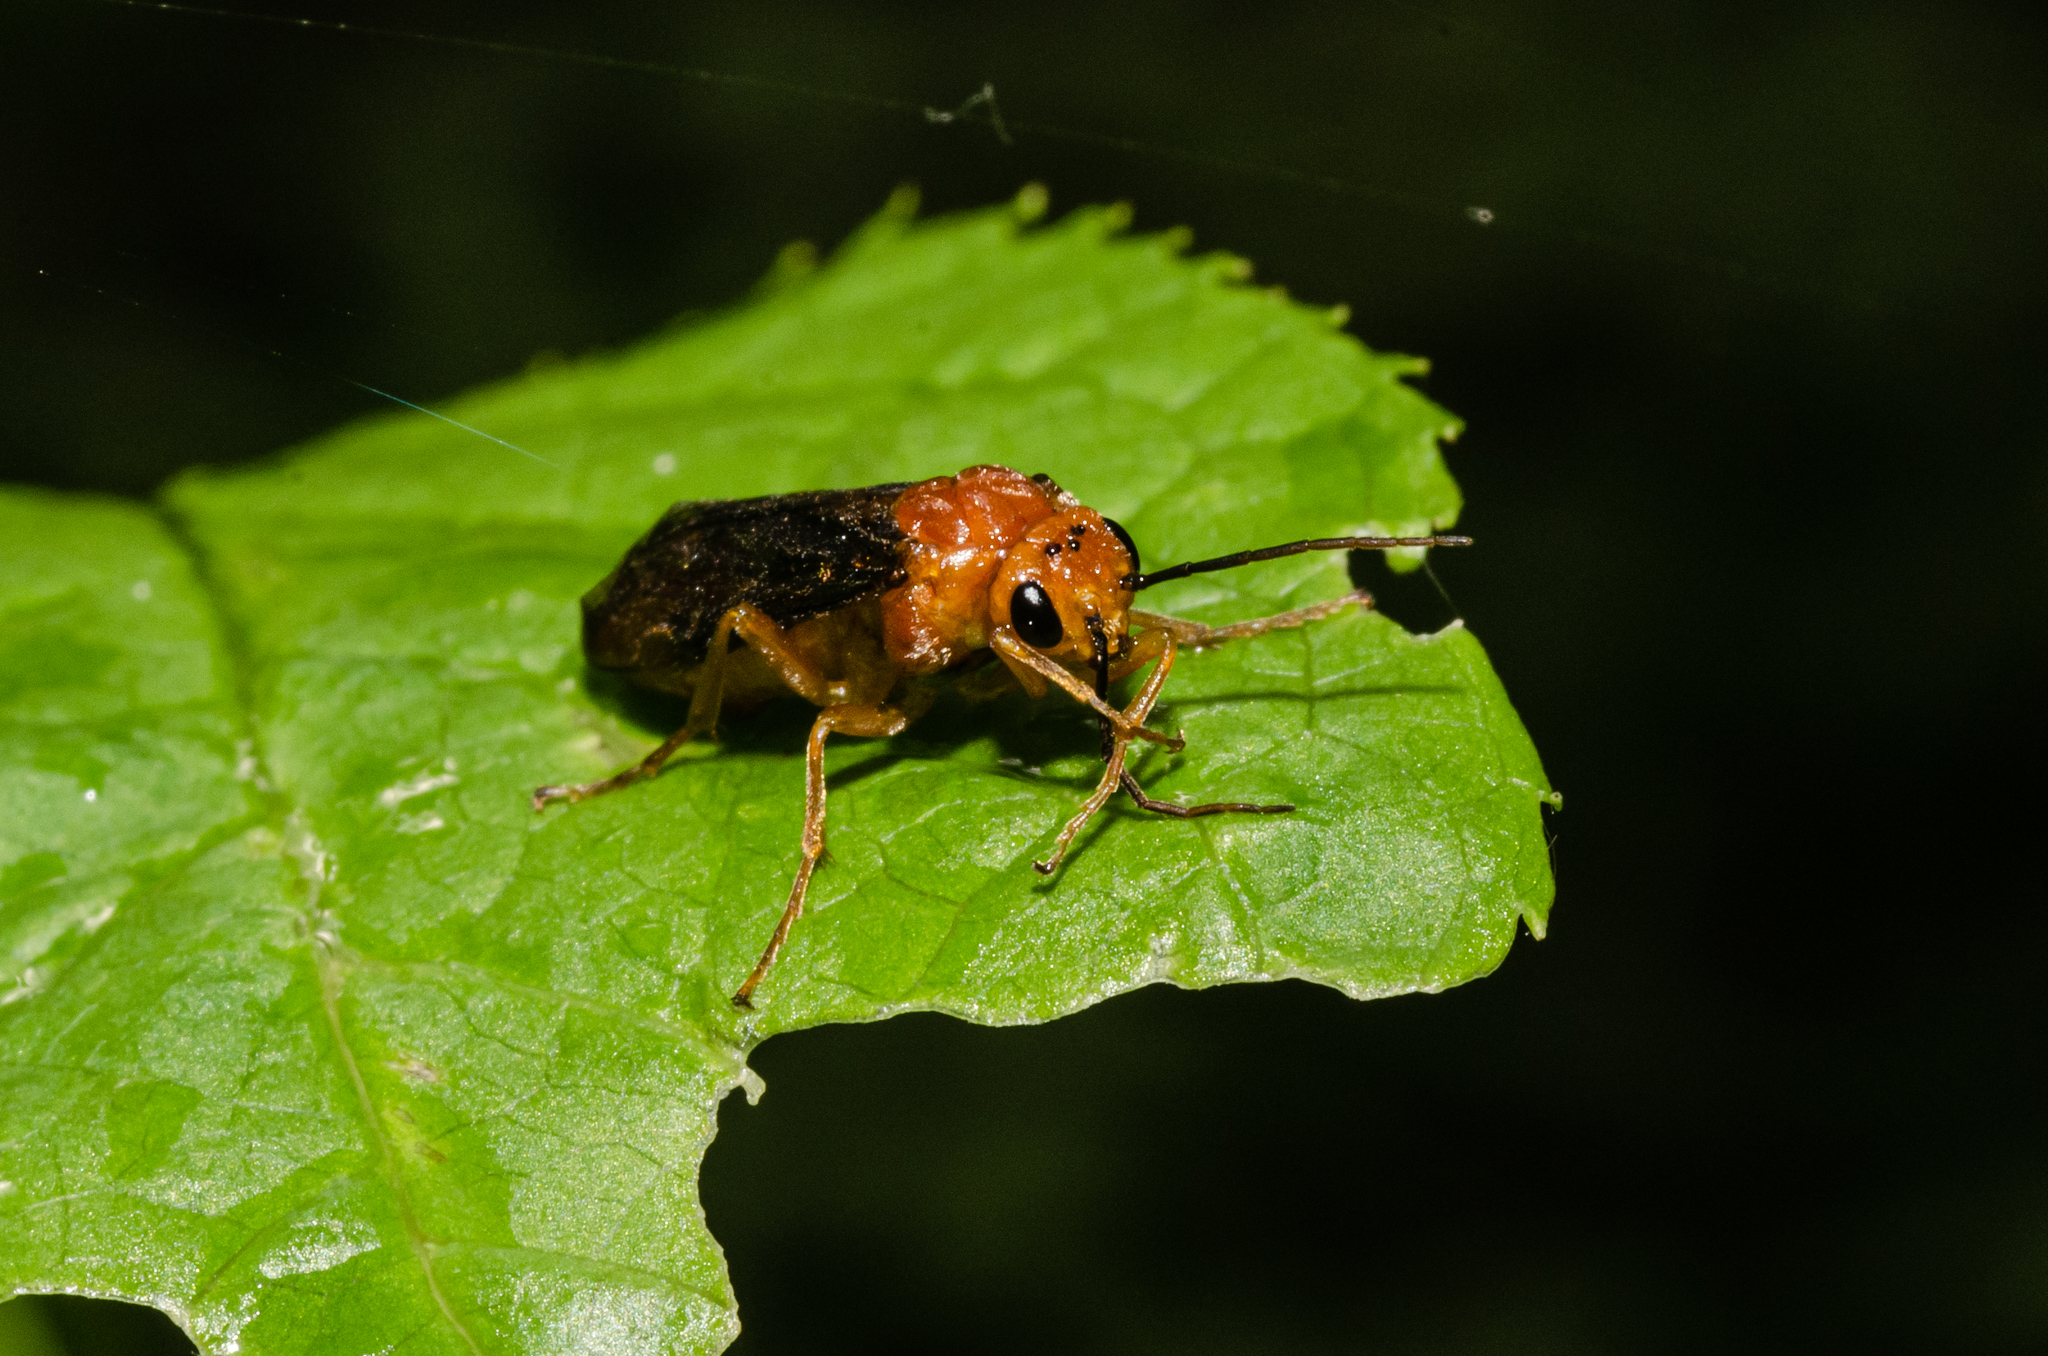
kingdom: Animalia
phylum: Arthropoda
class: Insecta
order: Hymenoptera
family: Tenthredinidae
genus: Hemichroa
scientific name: Hemichroa crocea
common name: Striped alder sawfly
